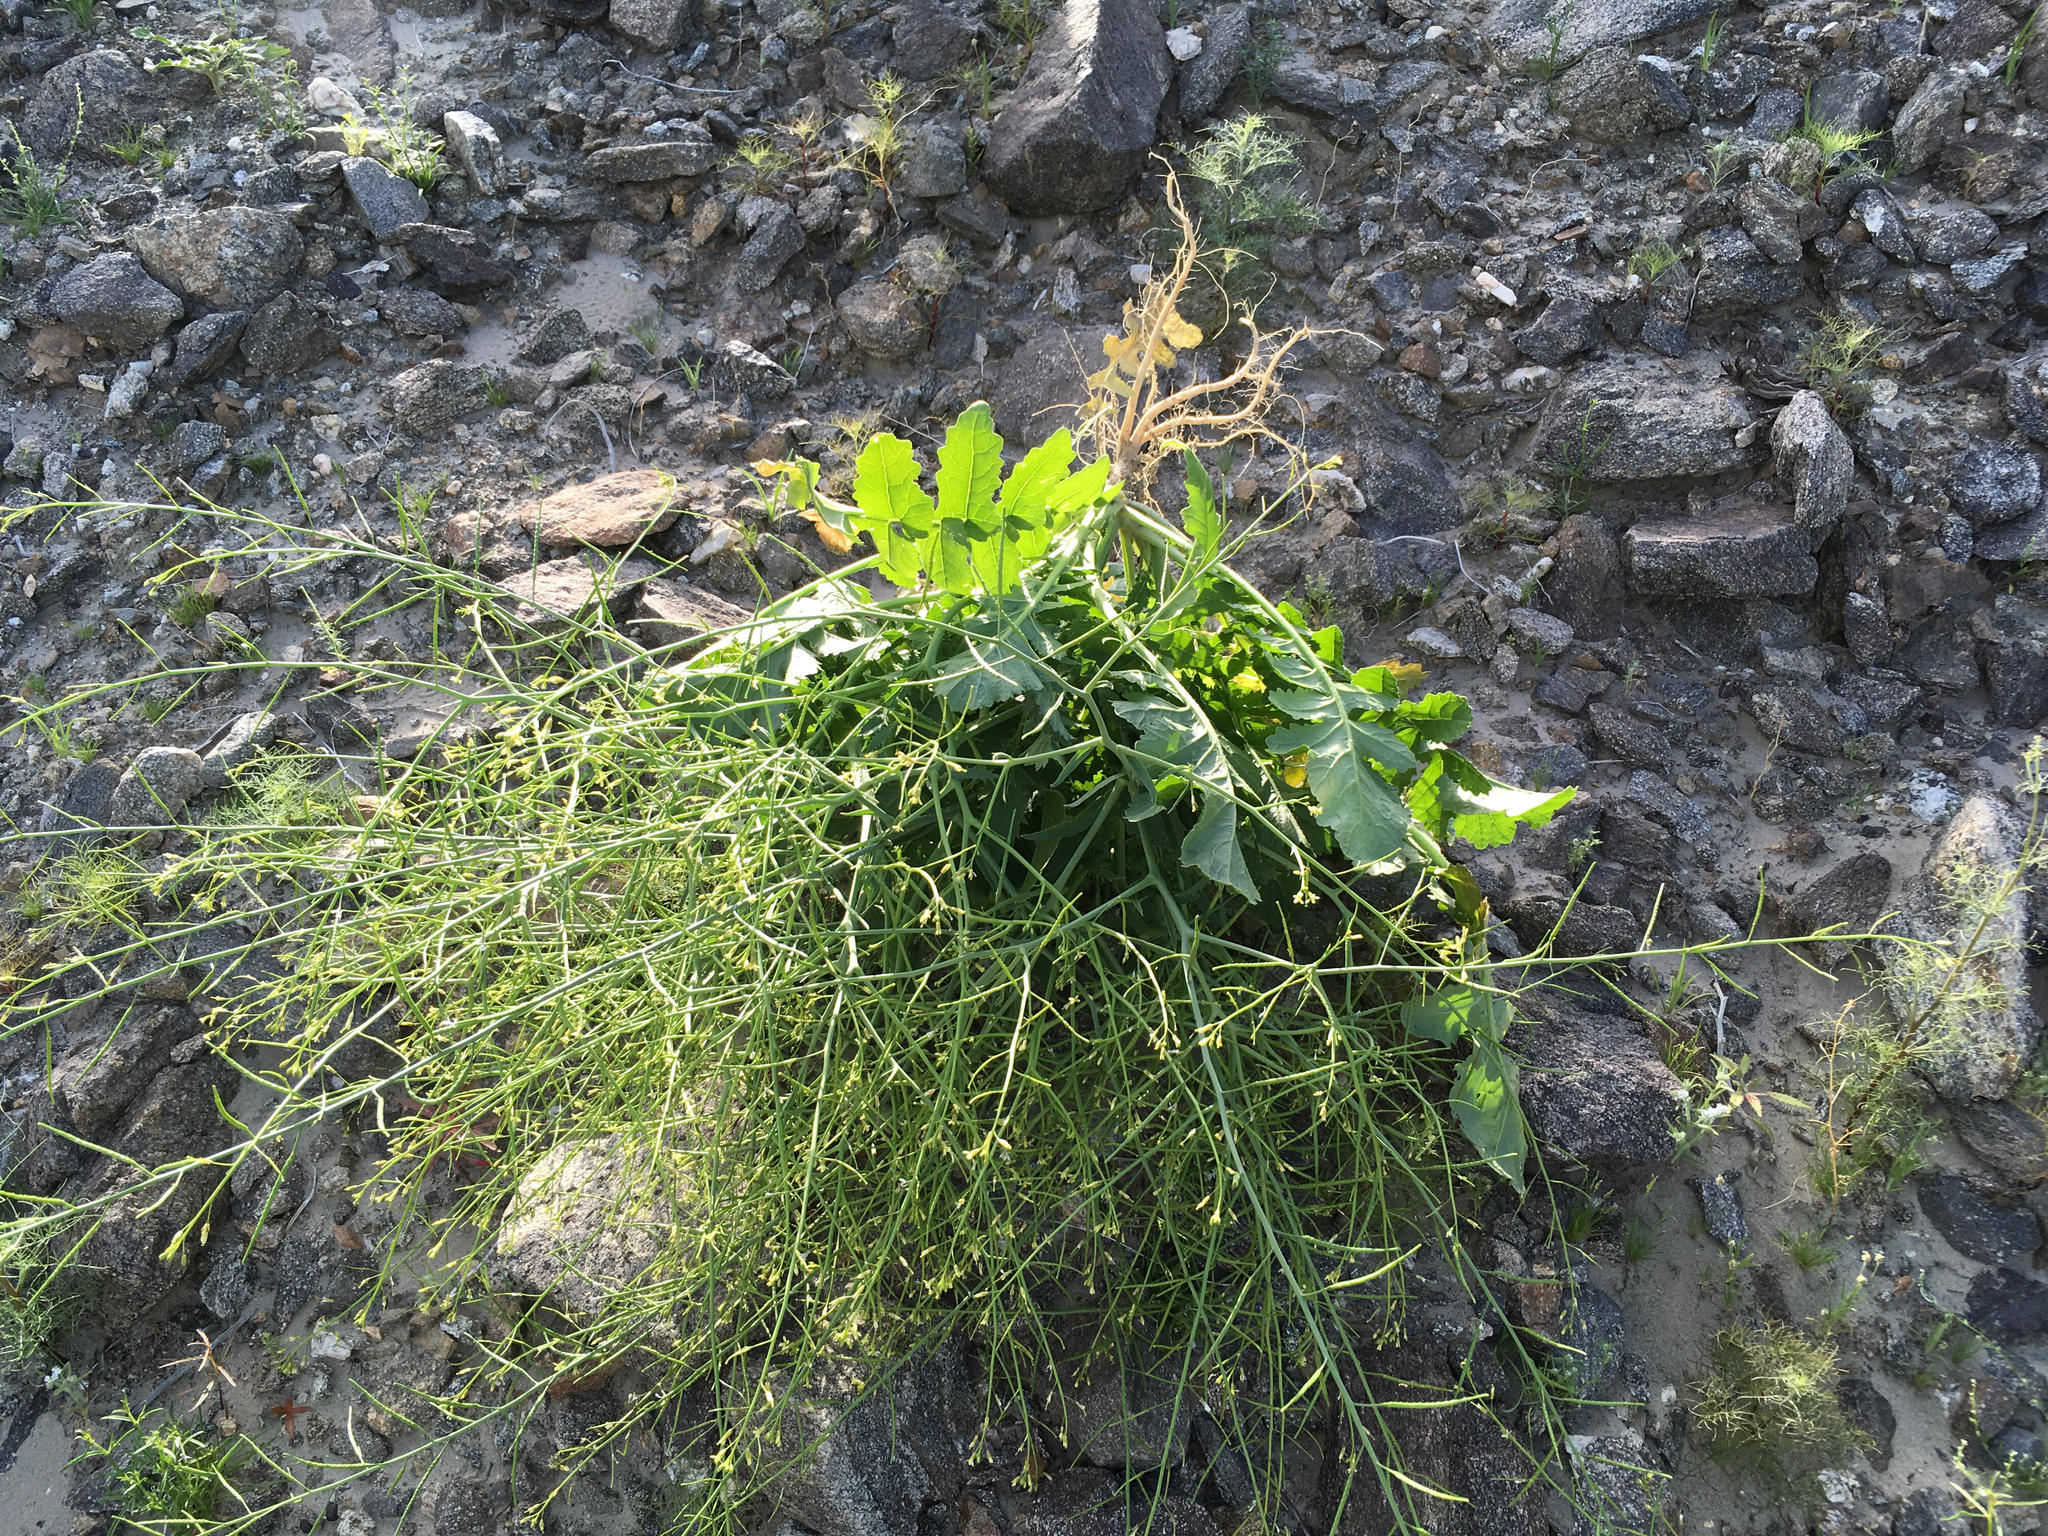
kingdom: Plantae
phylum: Tracheophyta
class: Magnoliopsida
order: Brassicales
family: Brassicaceae
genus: Brassica
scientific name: Brassica tournefortii
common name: Pale cabbage
